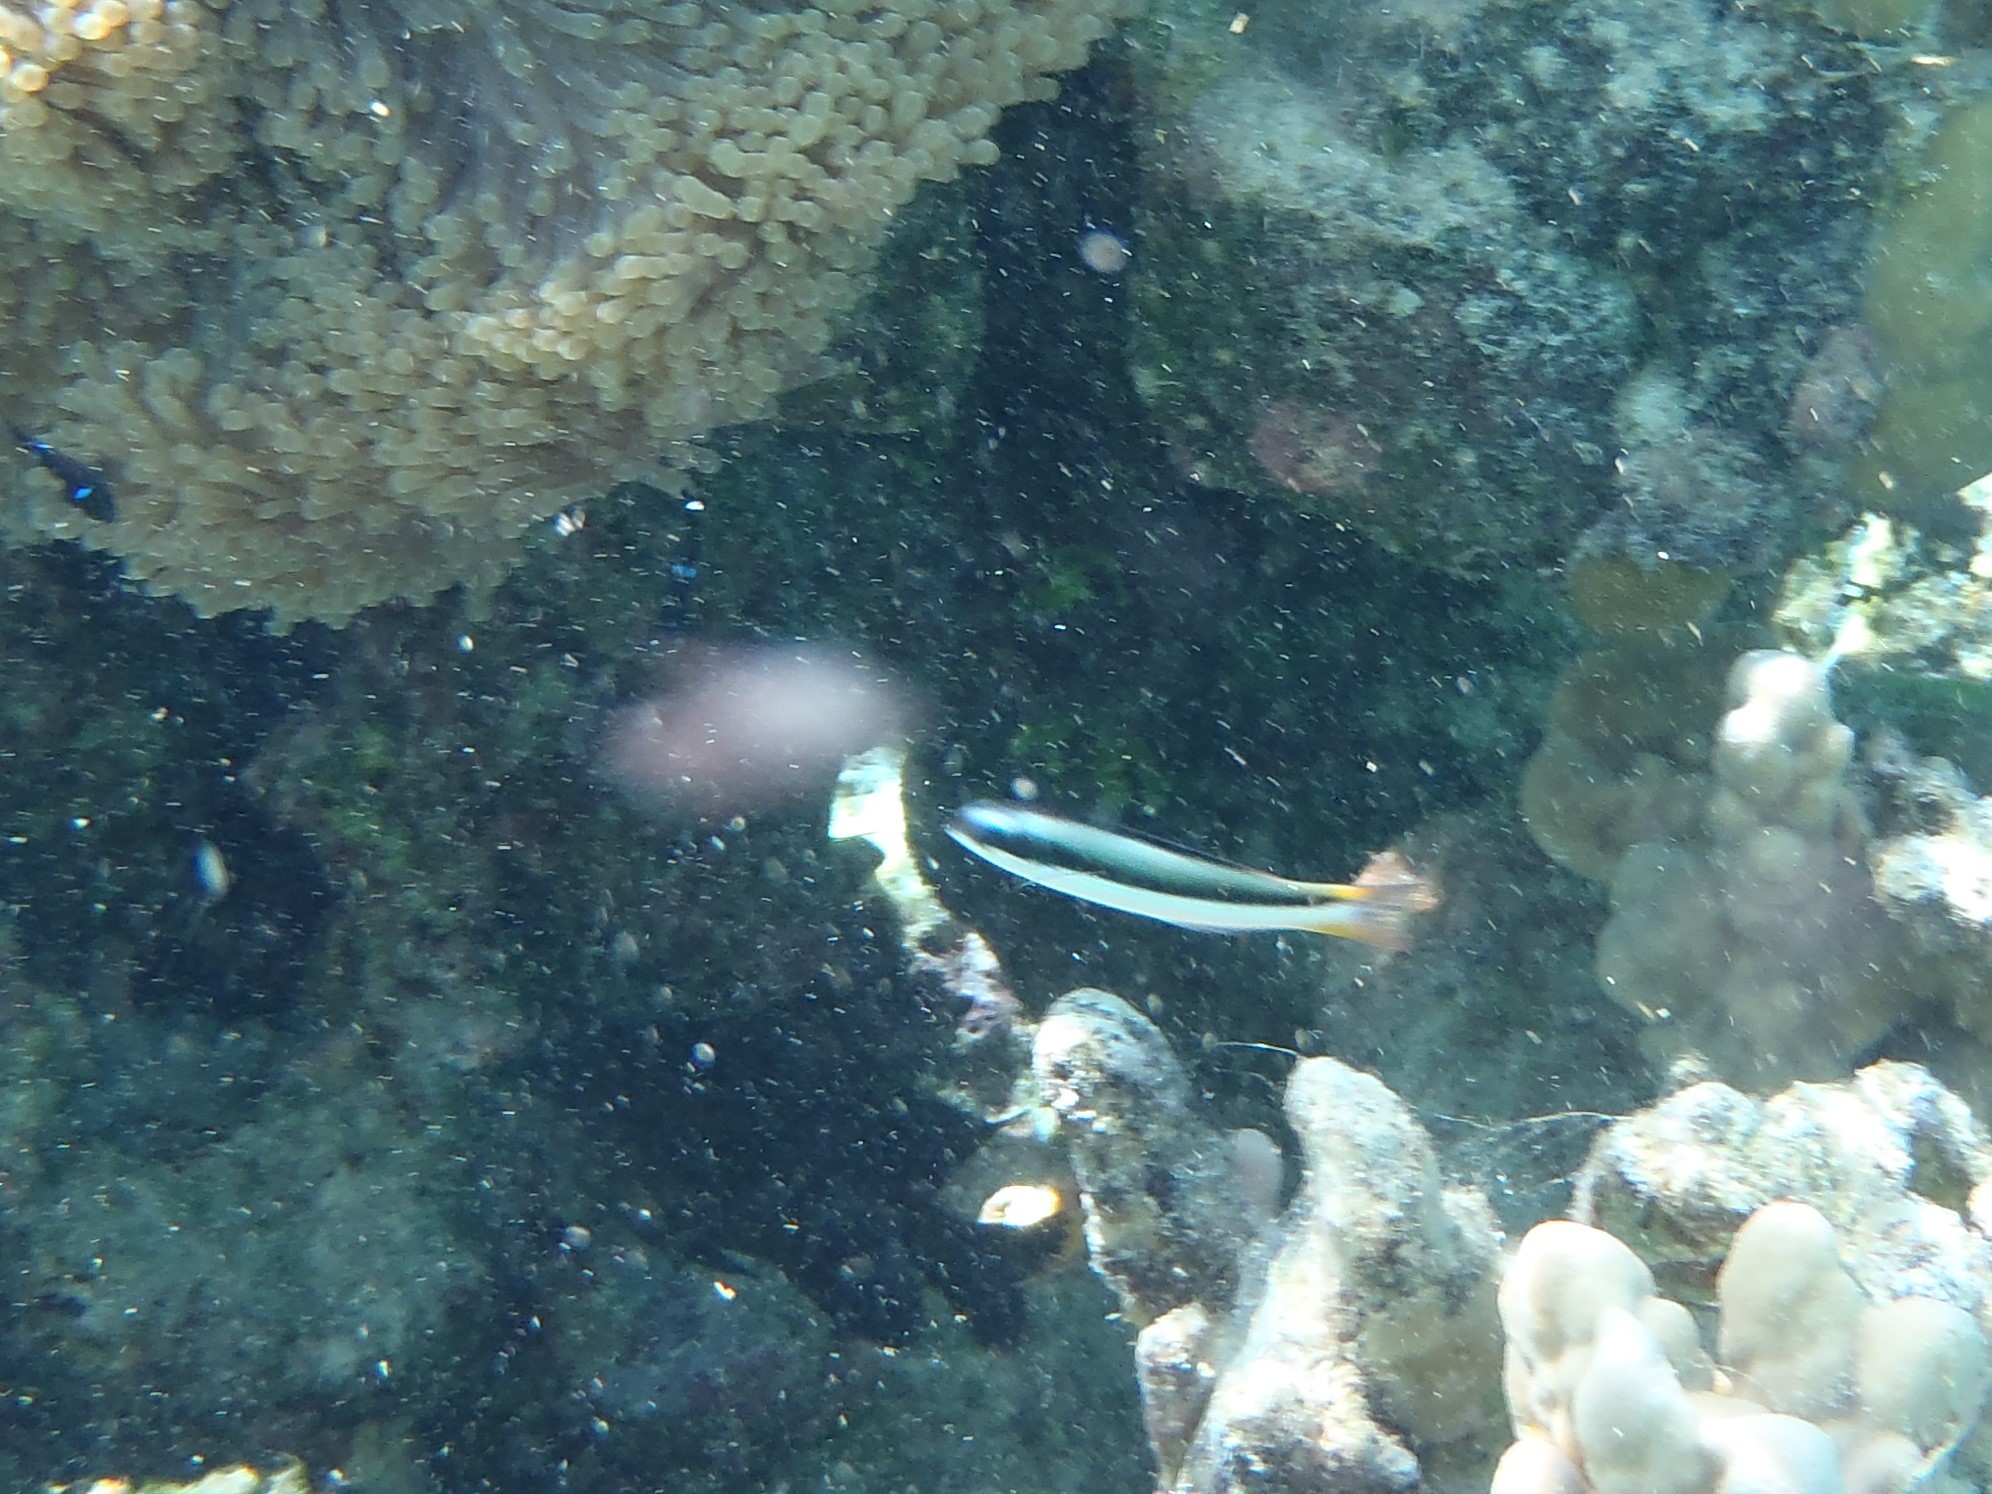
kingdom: Animalia
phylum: Chordata
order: Perciformes
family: Labridae
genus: Thalassoma
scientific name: Thalassoma amblycephalum
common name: Bluehead wrasse
